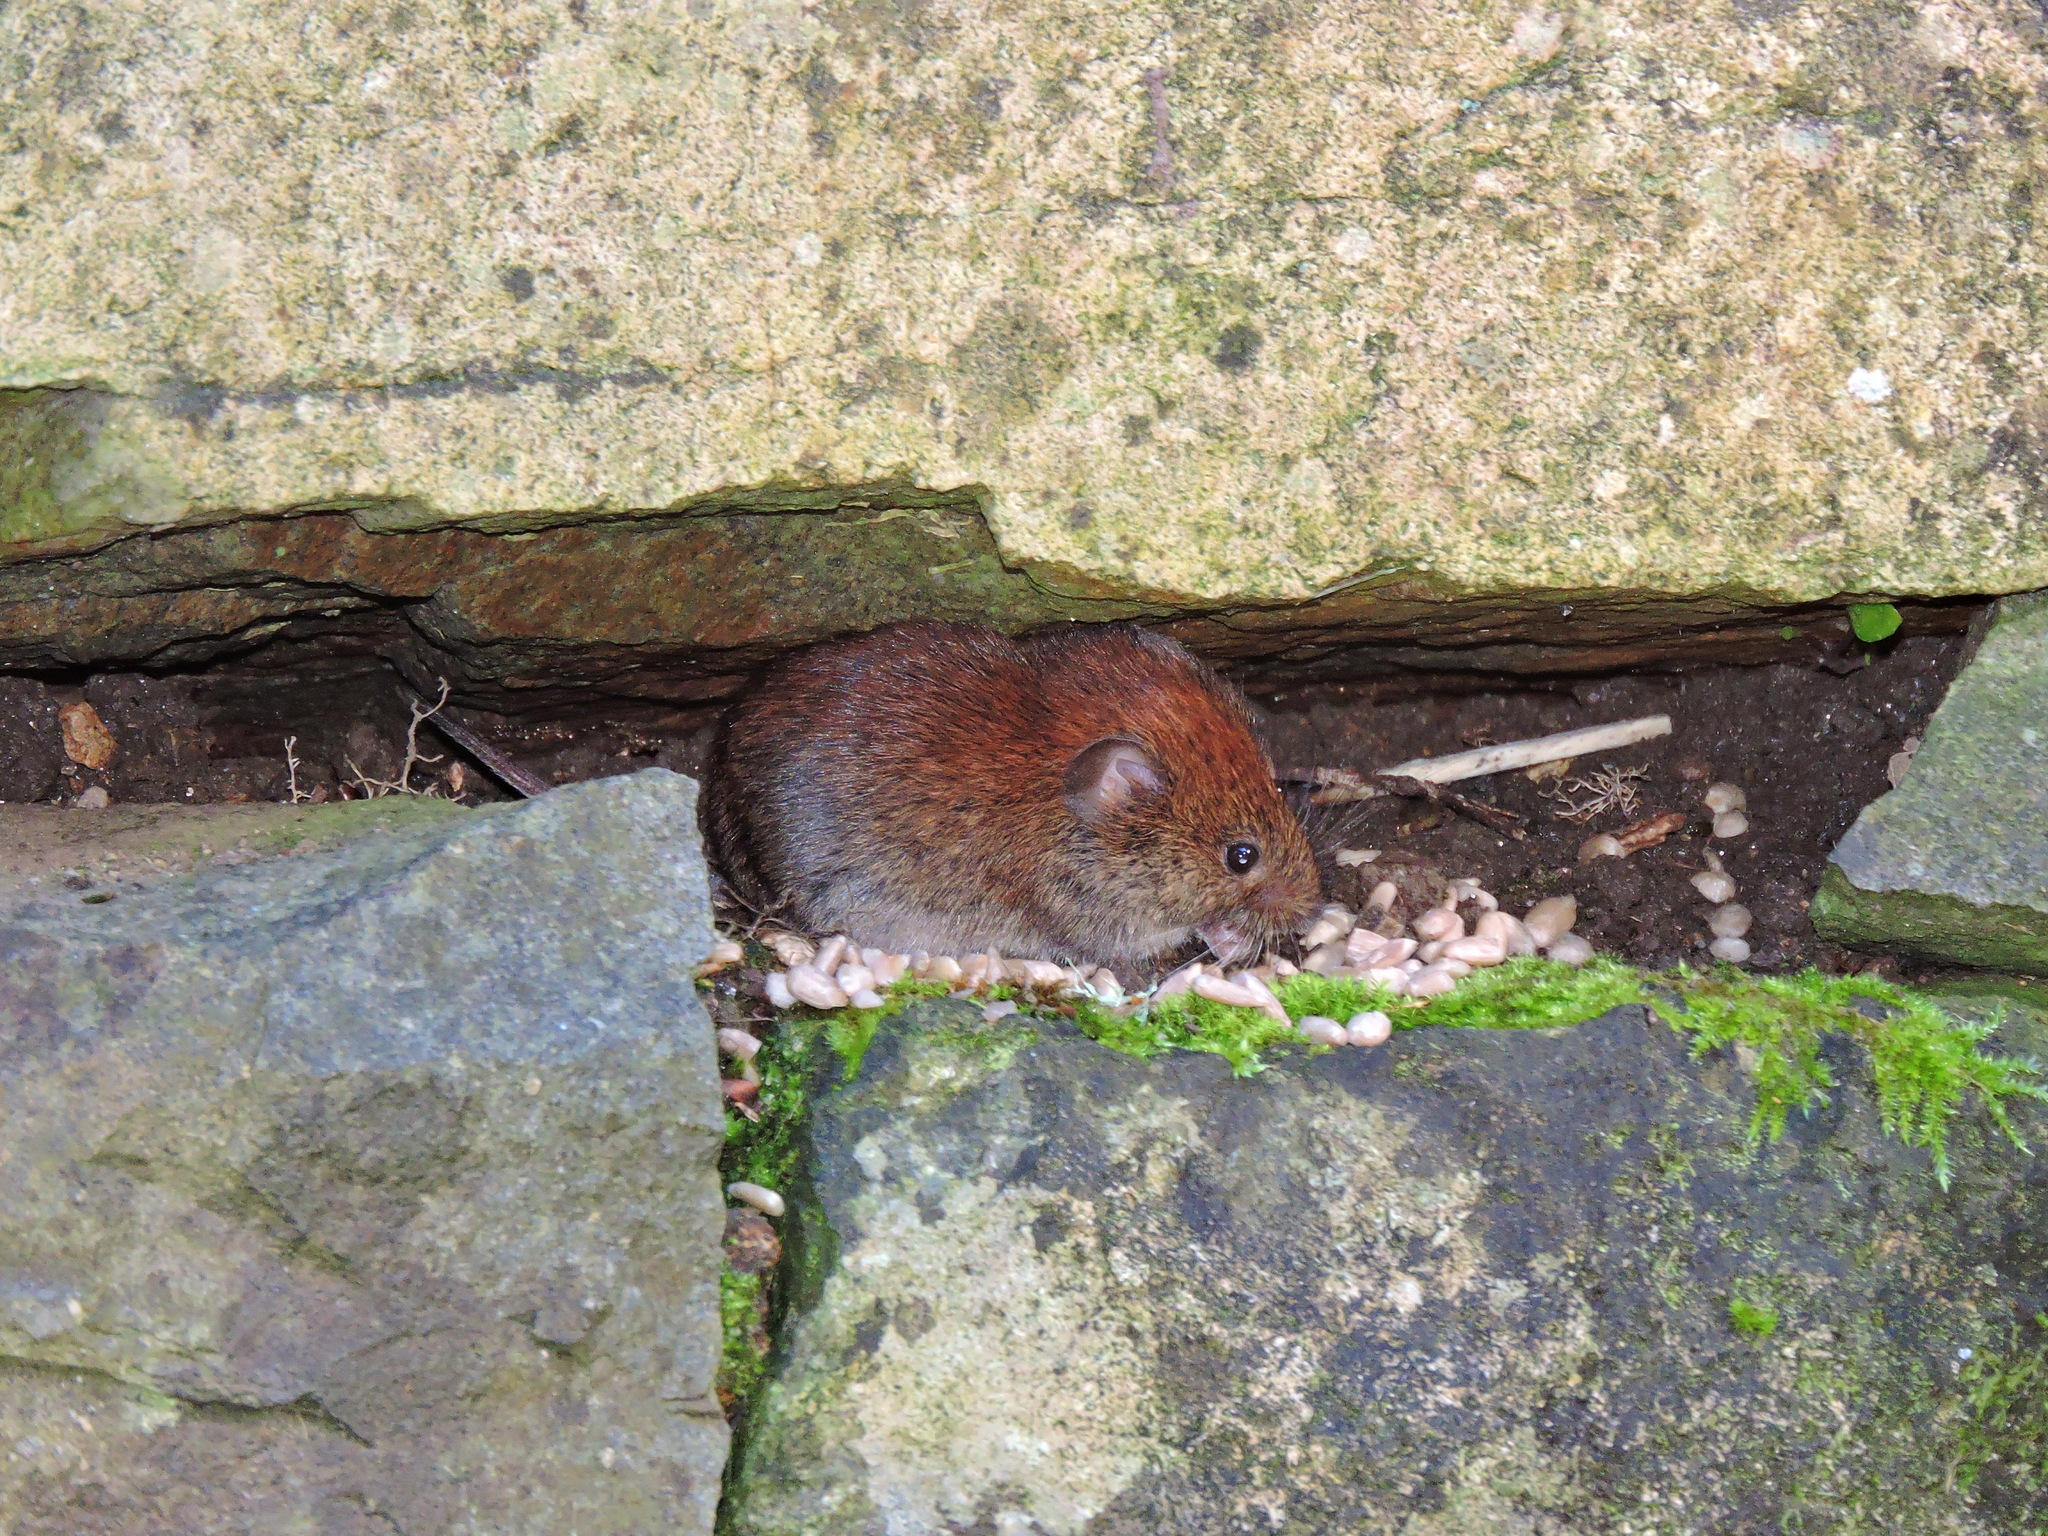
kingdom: Animalia
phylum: Chordata
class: Mammalia
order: Rodentia
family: Cricetidae
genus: Myodes
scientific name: Myodes glareolus
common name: Bank vole
